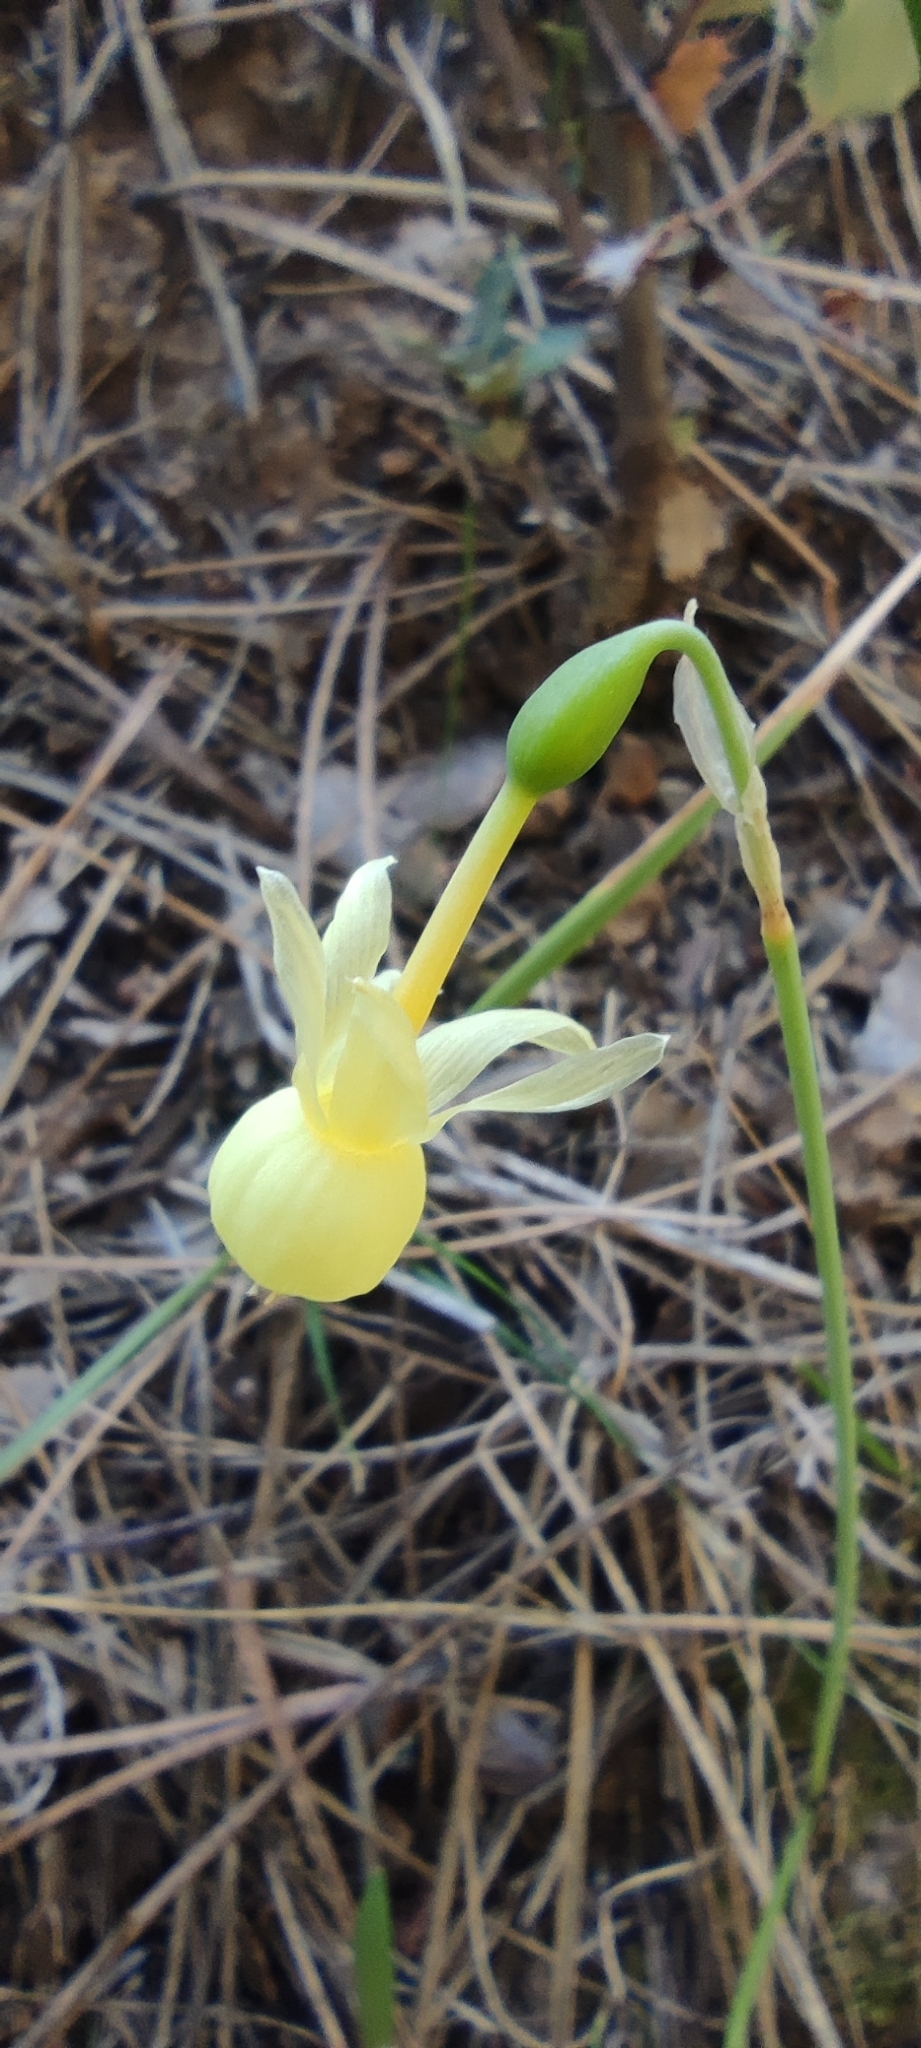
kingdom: Plantae
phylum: Tracheophyta
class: Liliopsida
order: Asparagales
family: Amaryllidaceae
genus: Narcissus
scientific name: Narcissus triandrus
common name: Angel's-tears
